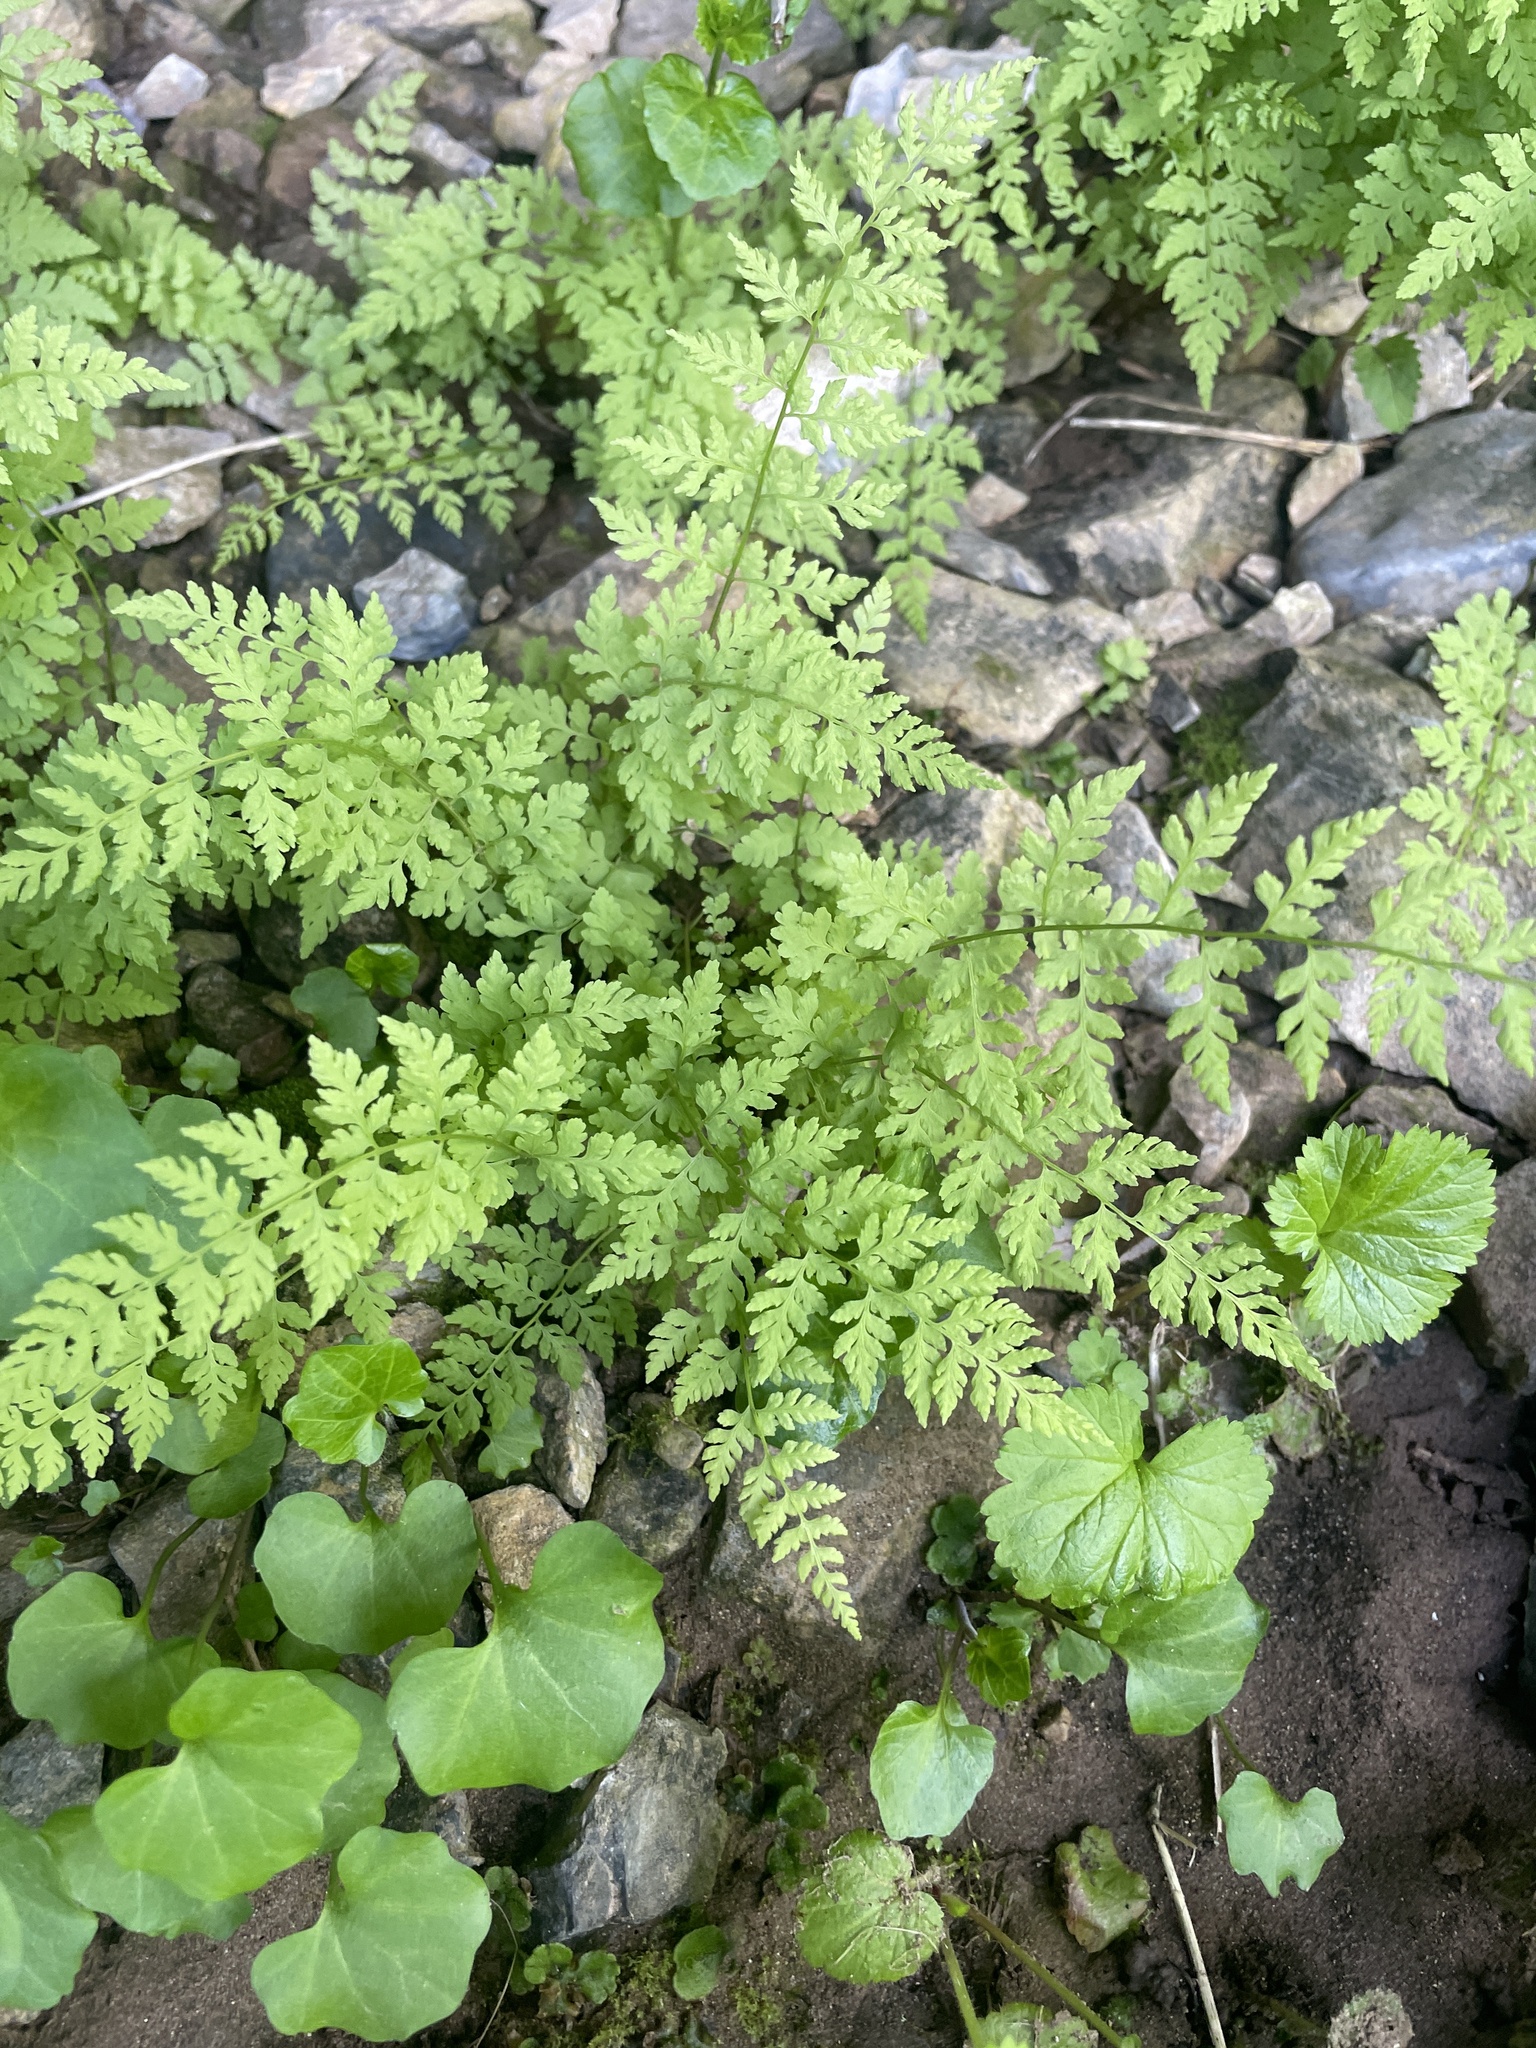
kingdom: Plantae
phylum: Tracheophyta
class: Polypodiopsida
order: Polypodiales
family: Cystopteridaceae
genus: Cystopteris
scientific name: Cystopteris fragilis
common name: Brittle bladder fern
